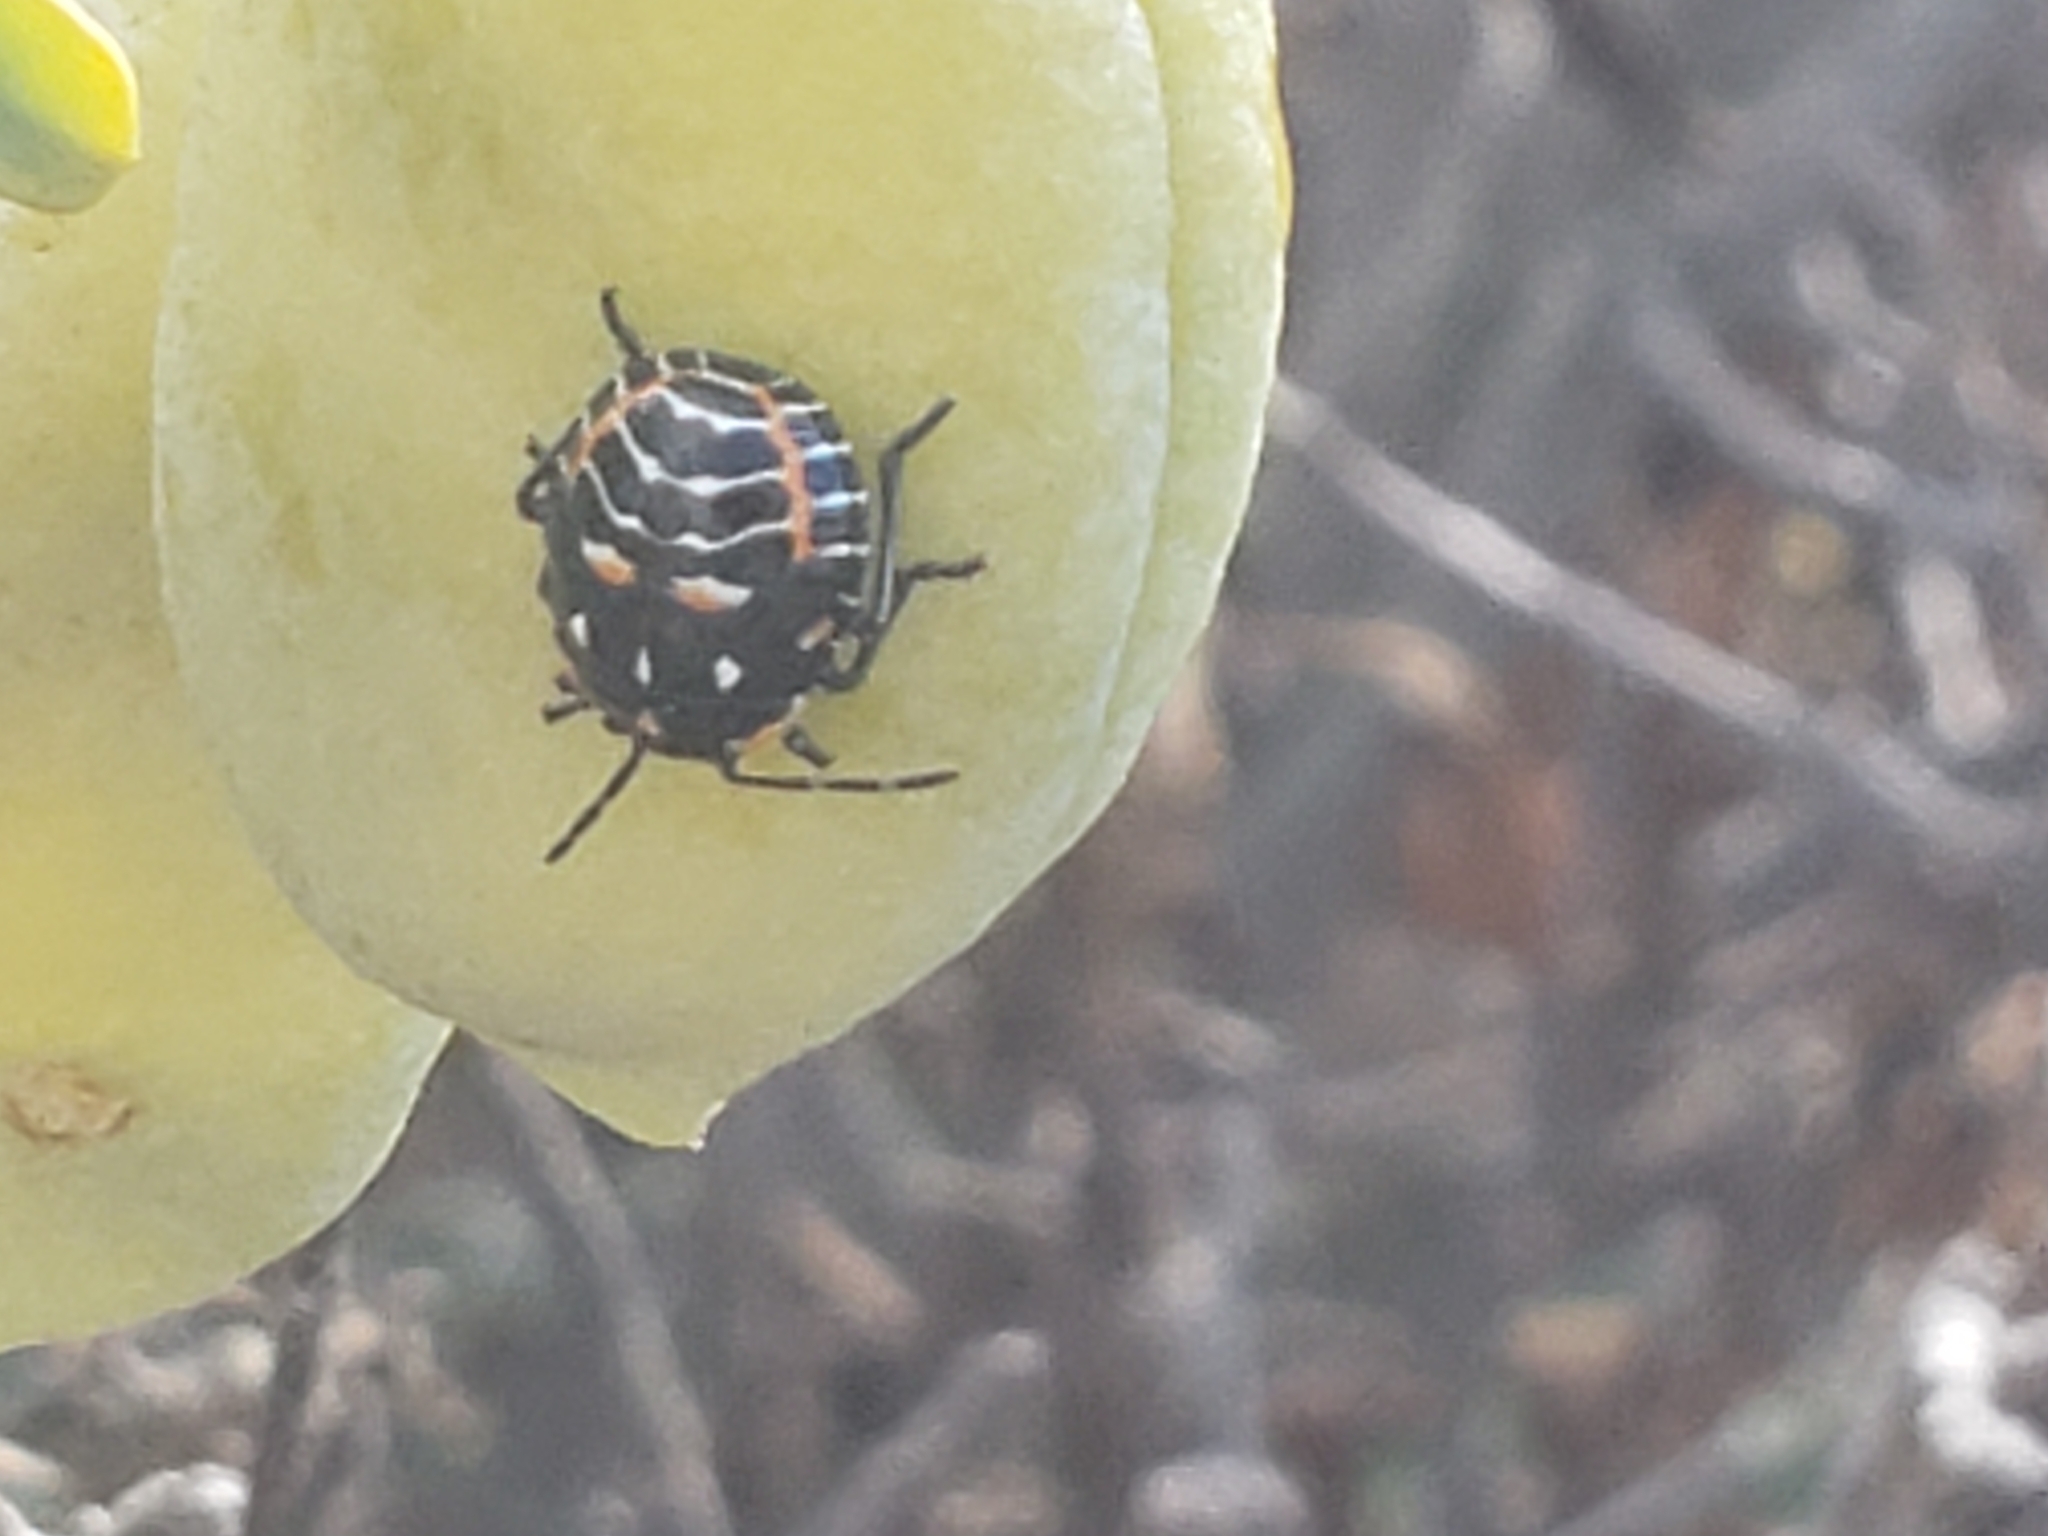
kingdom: Animalia
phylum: Arthropoda
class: Insecta
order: Hemiptera
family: Pentatomidae
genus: Murgantia
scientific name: Murgantia histrionica
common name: Harlequin bug
